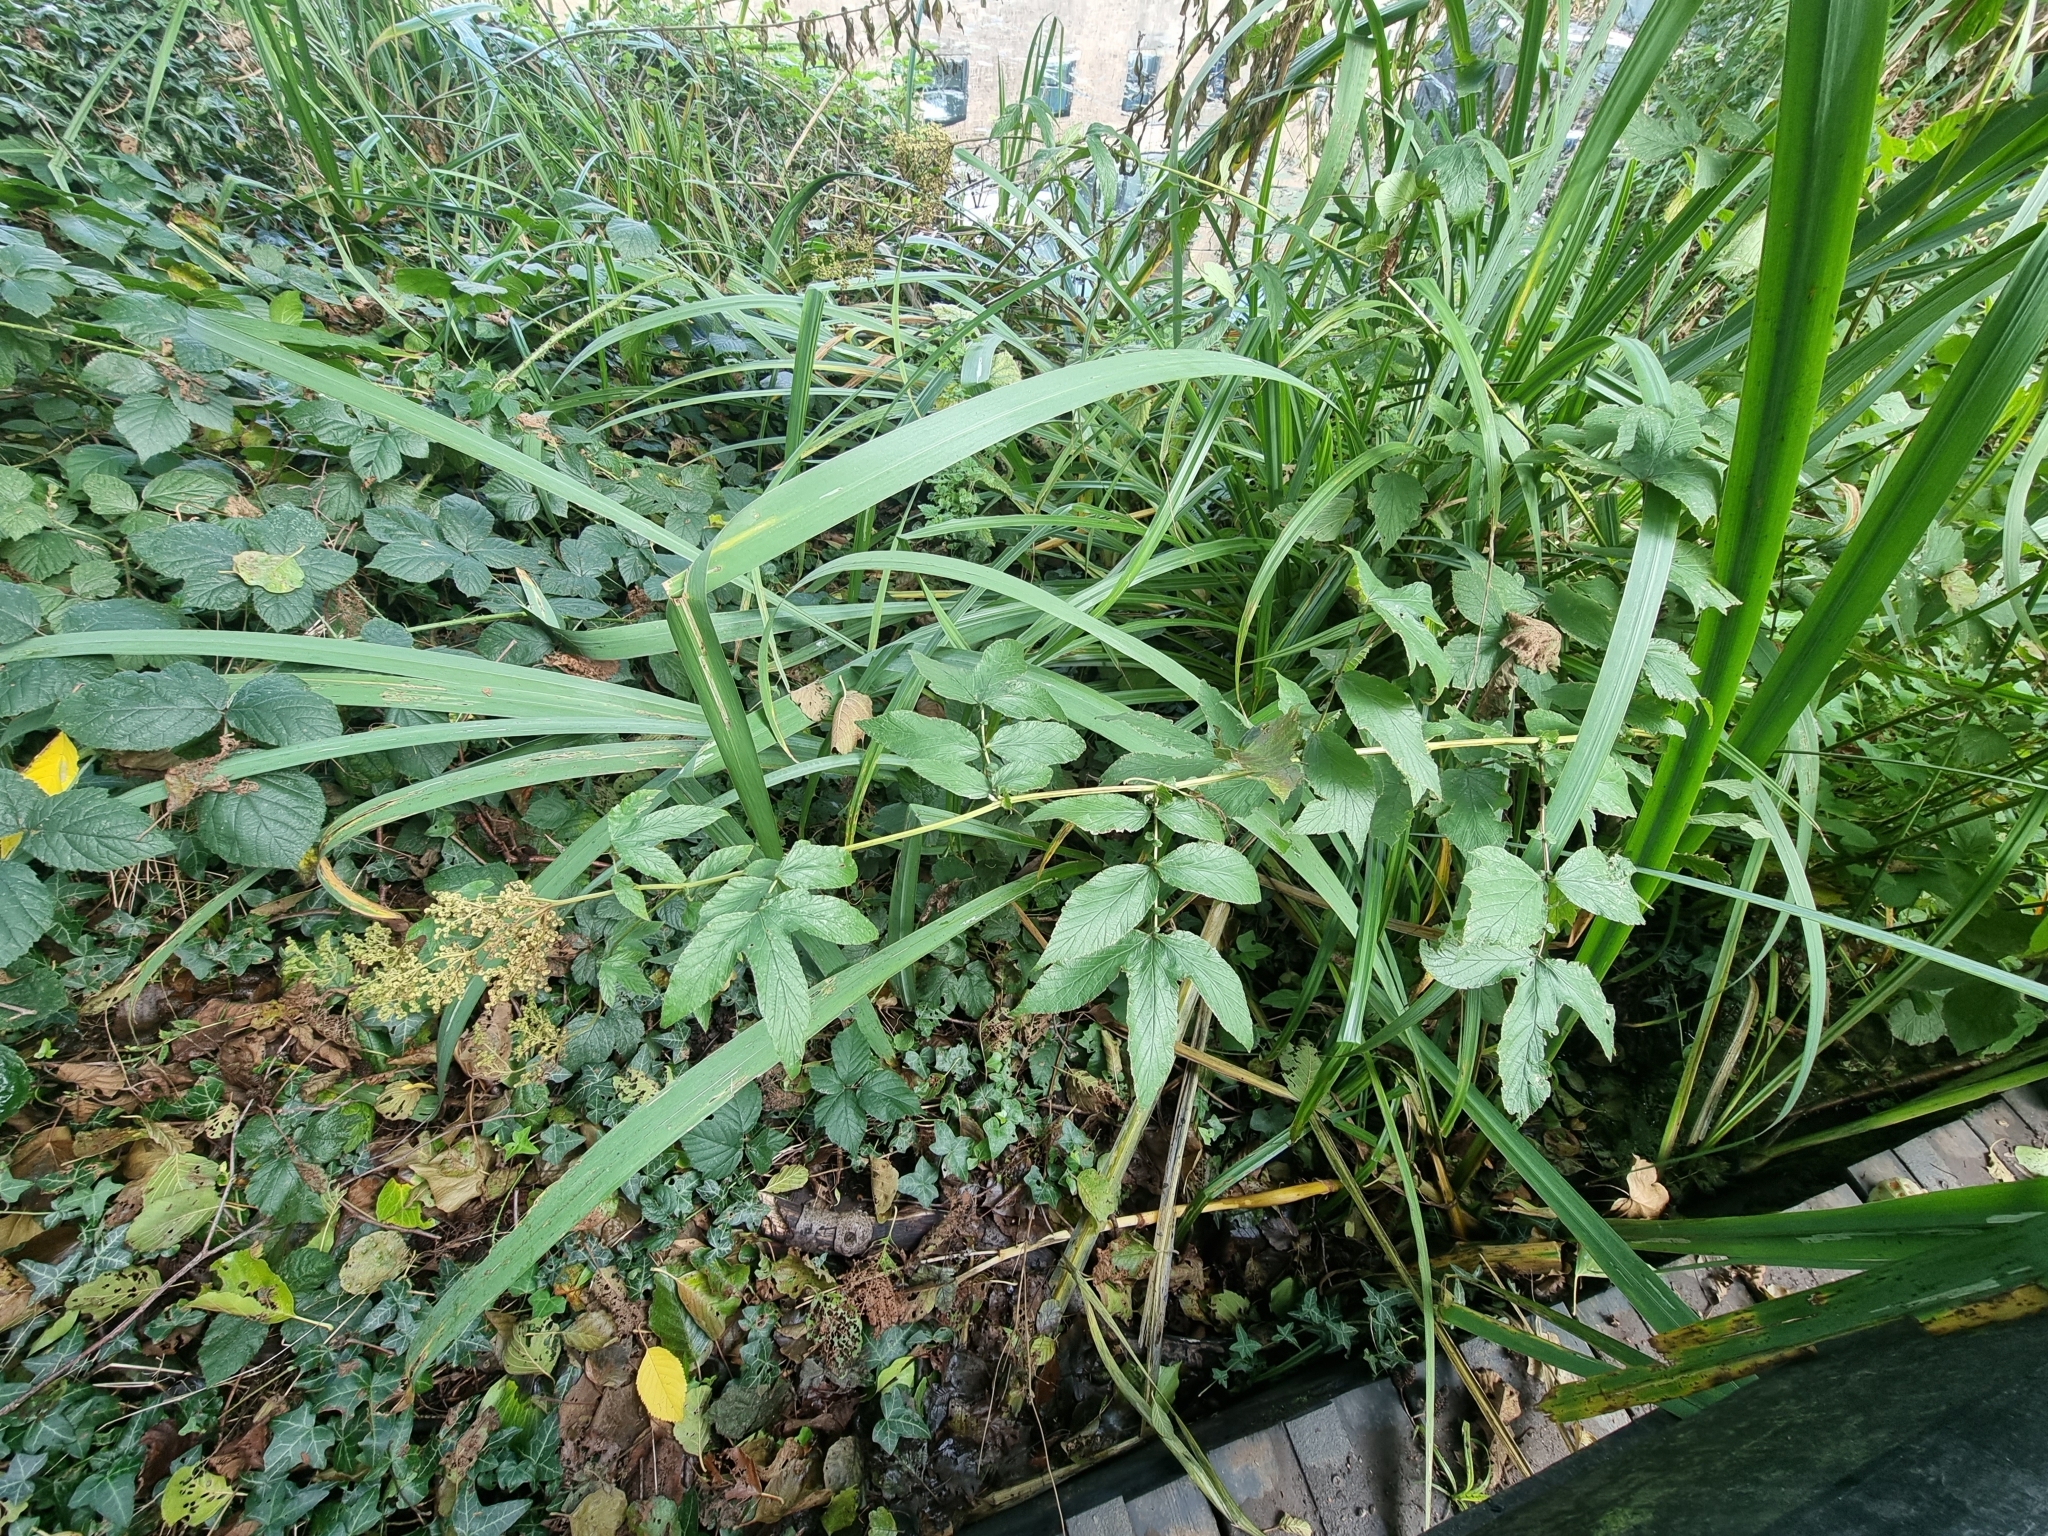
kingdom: Plantae
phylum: Tracheophyta
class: Magnoliopsida
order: Rosales
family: Rosaceae
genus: Filipendula
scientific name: Filipendula ulmaria
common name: Meadowsweet
